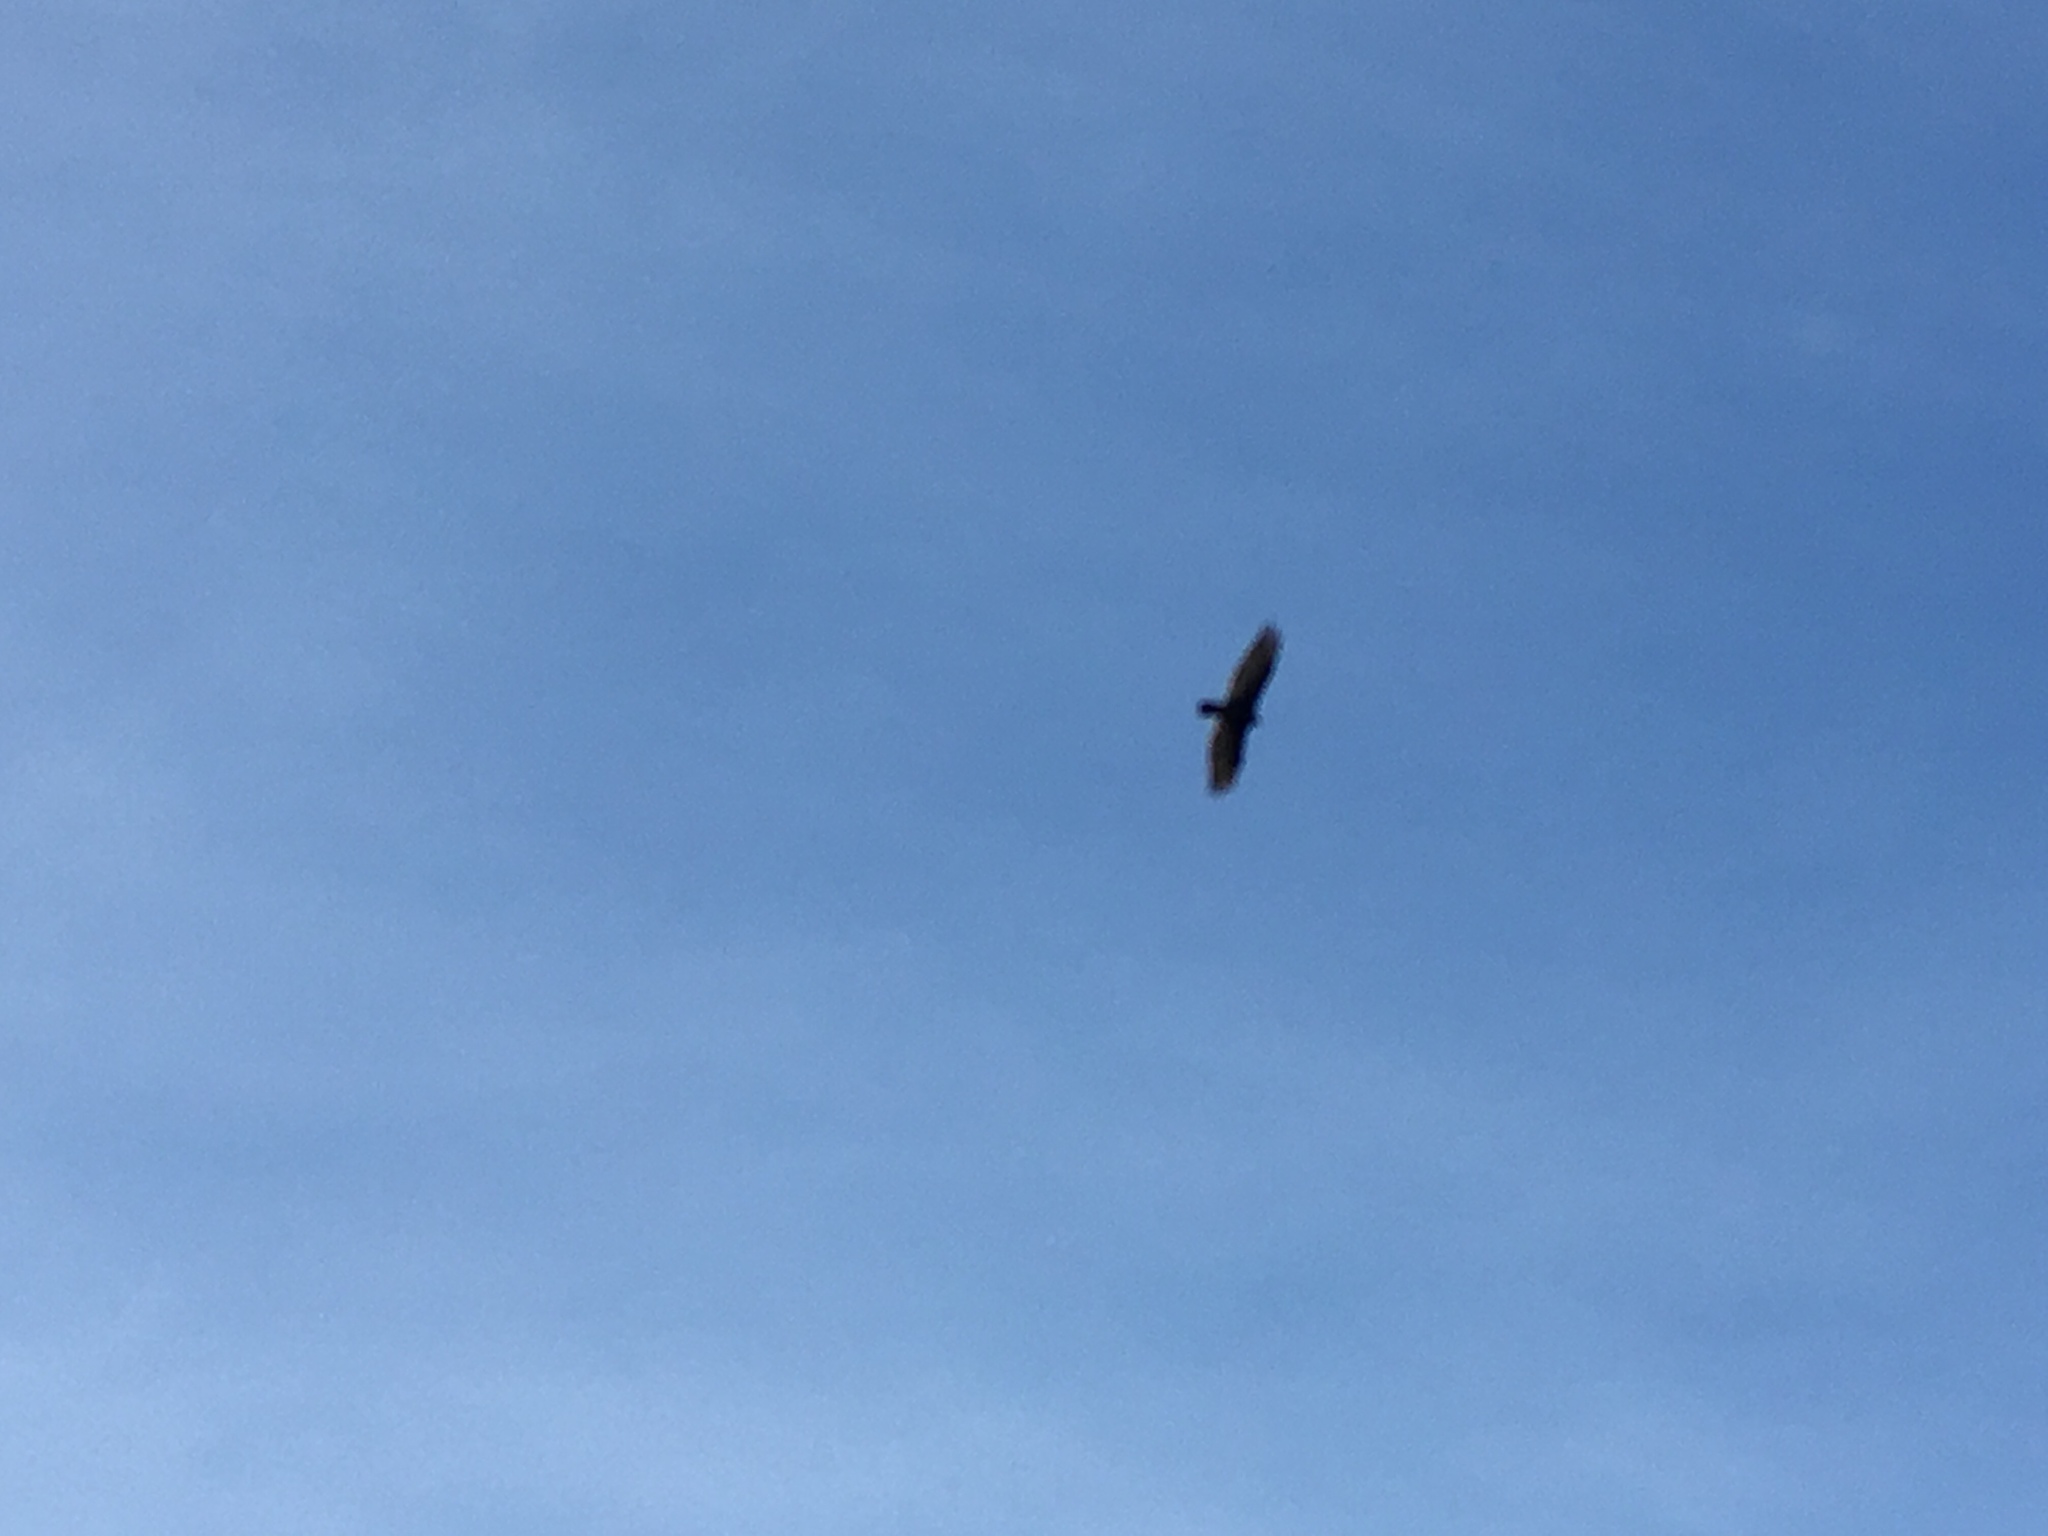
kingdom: Animalia
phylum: Chordata
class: Aves
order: Accipitriformes
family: Cathartidae
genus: Cathartes
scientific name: Cathartes aura
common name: Turkey vulture
